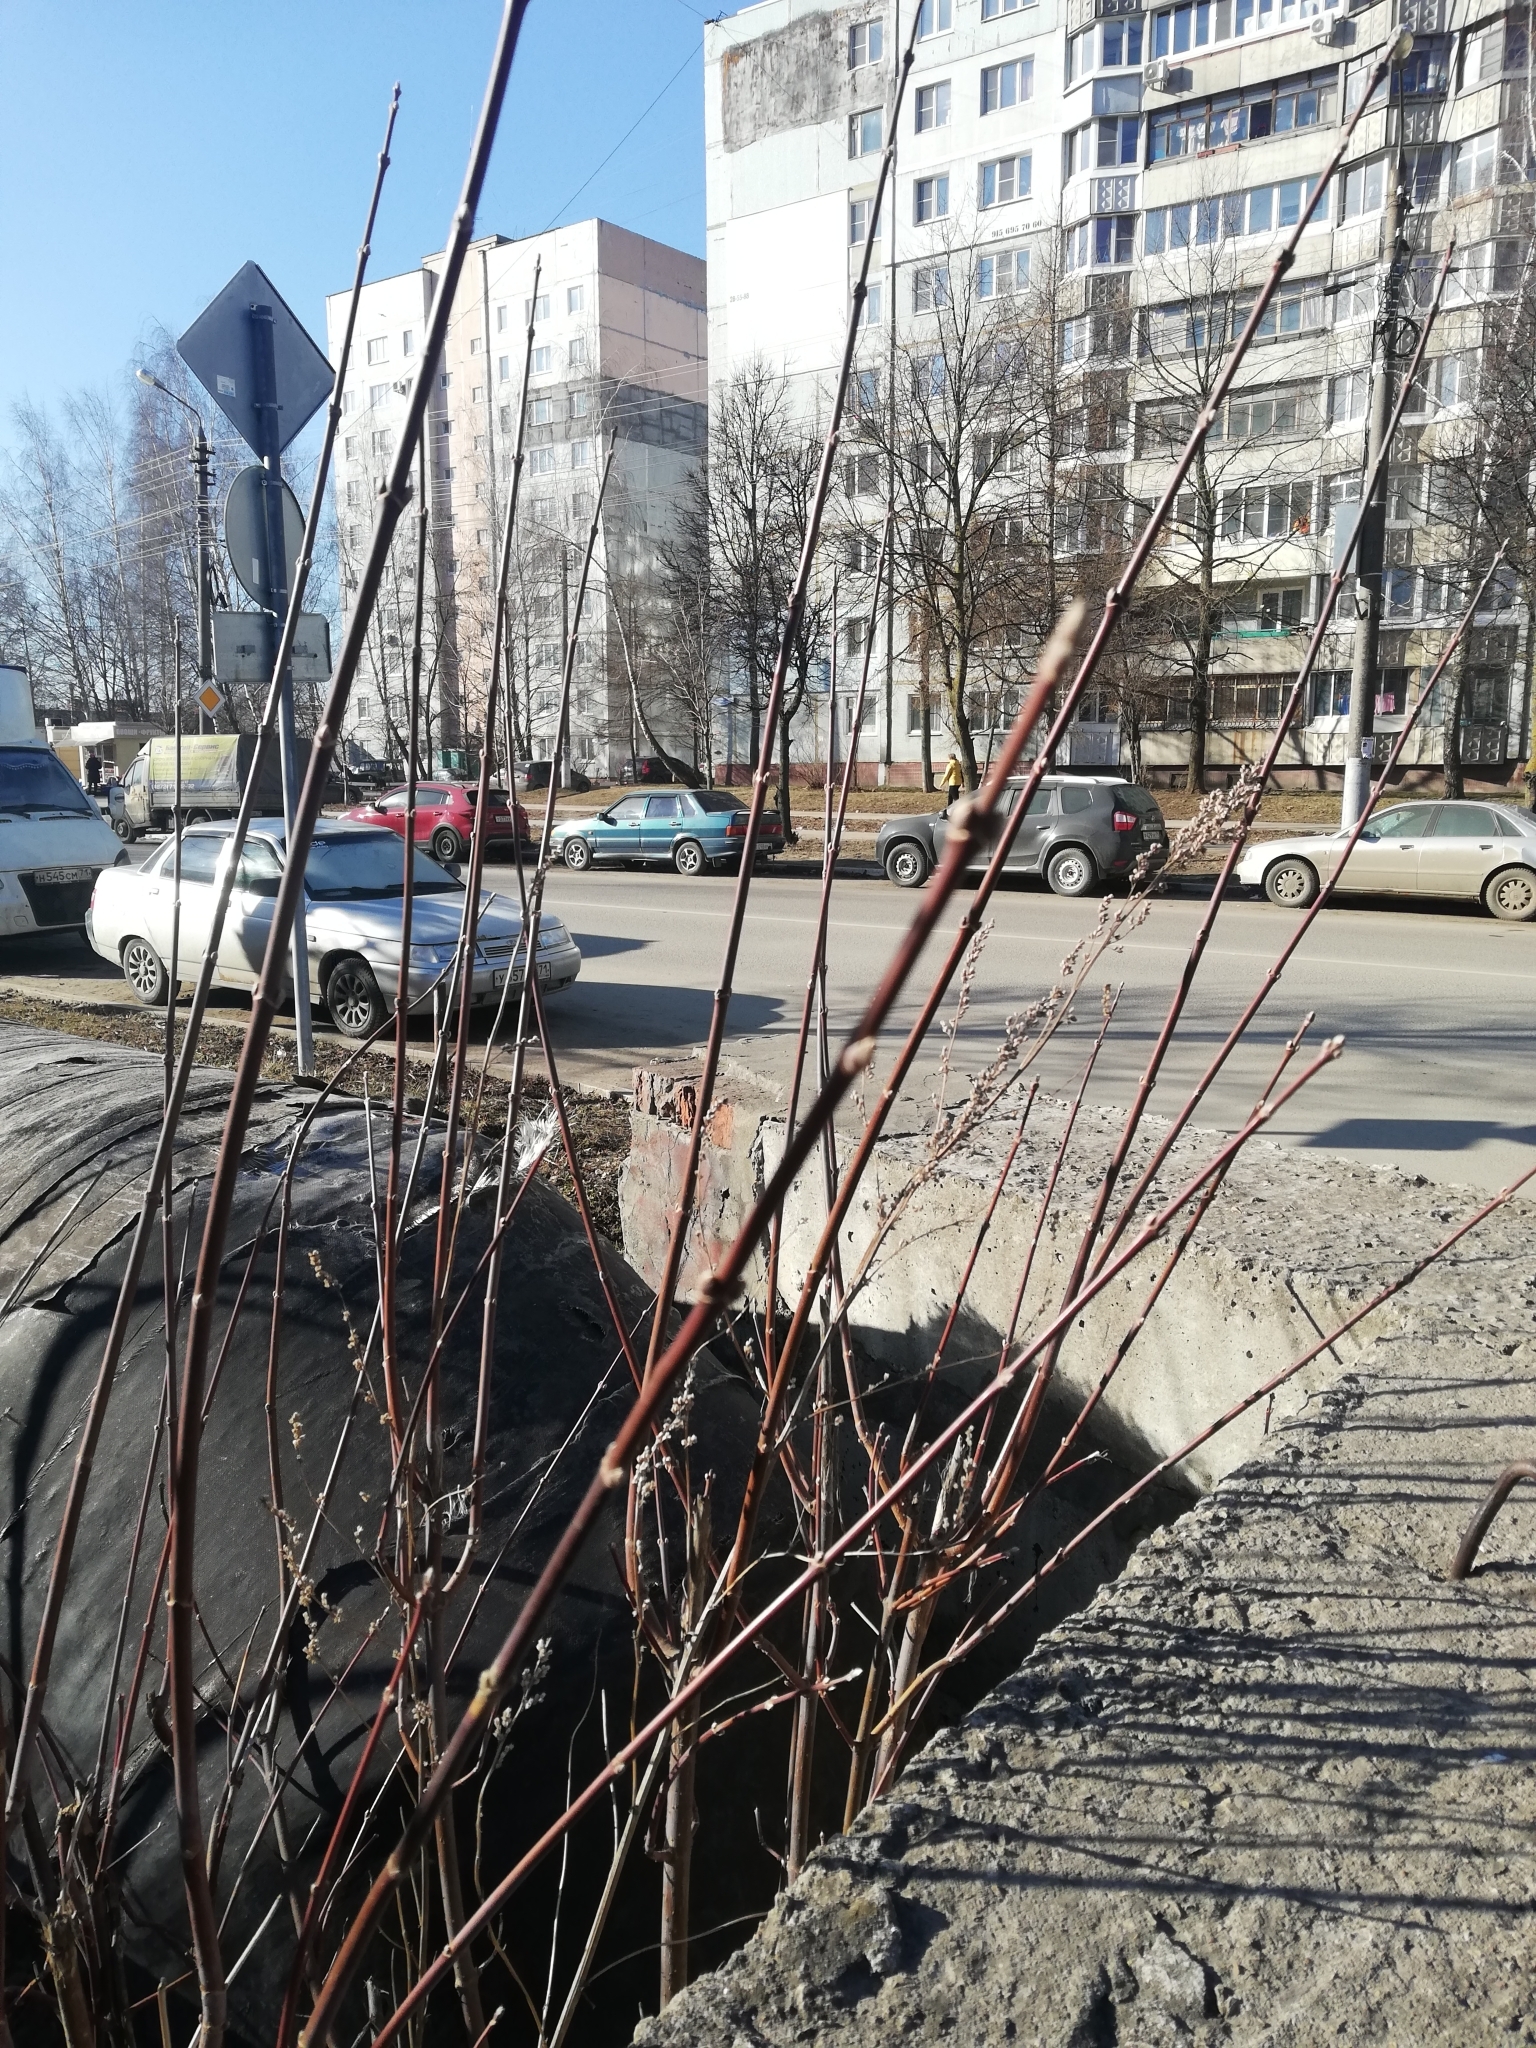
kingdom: Plantae
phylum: Tracheophyta
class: Magnoliopsida
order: Sapindales
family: Sapindaceae
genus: Acer
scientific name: Acer negundo
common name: Ashleaf maple
